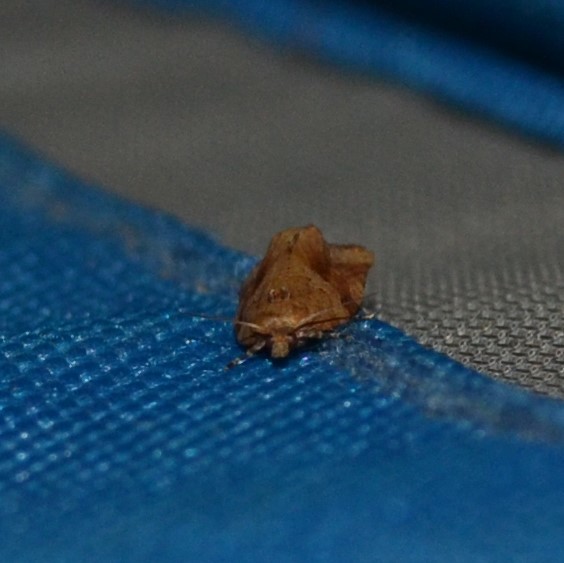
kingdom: Animalia
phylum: Arthropoda
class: Insecta
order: Lepidoptera
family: Tortricidae
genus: Argyrotaenia
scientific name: Argyrotaenia ivana
